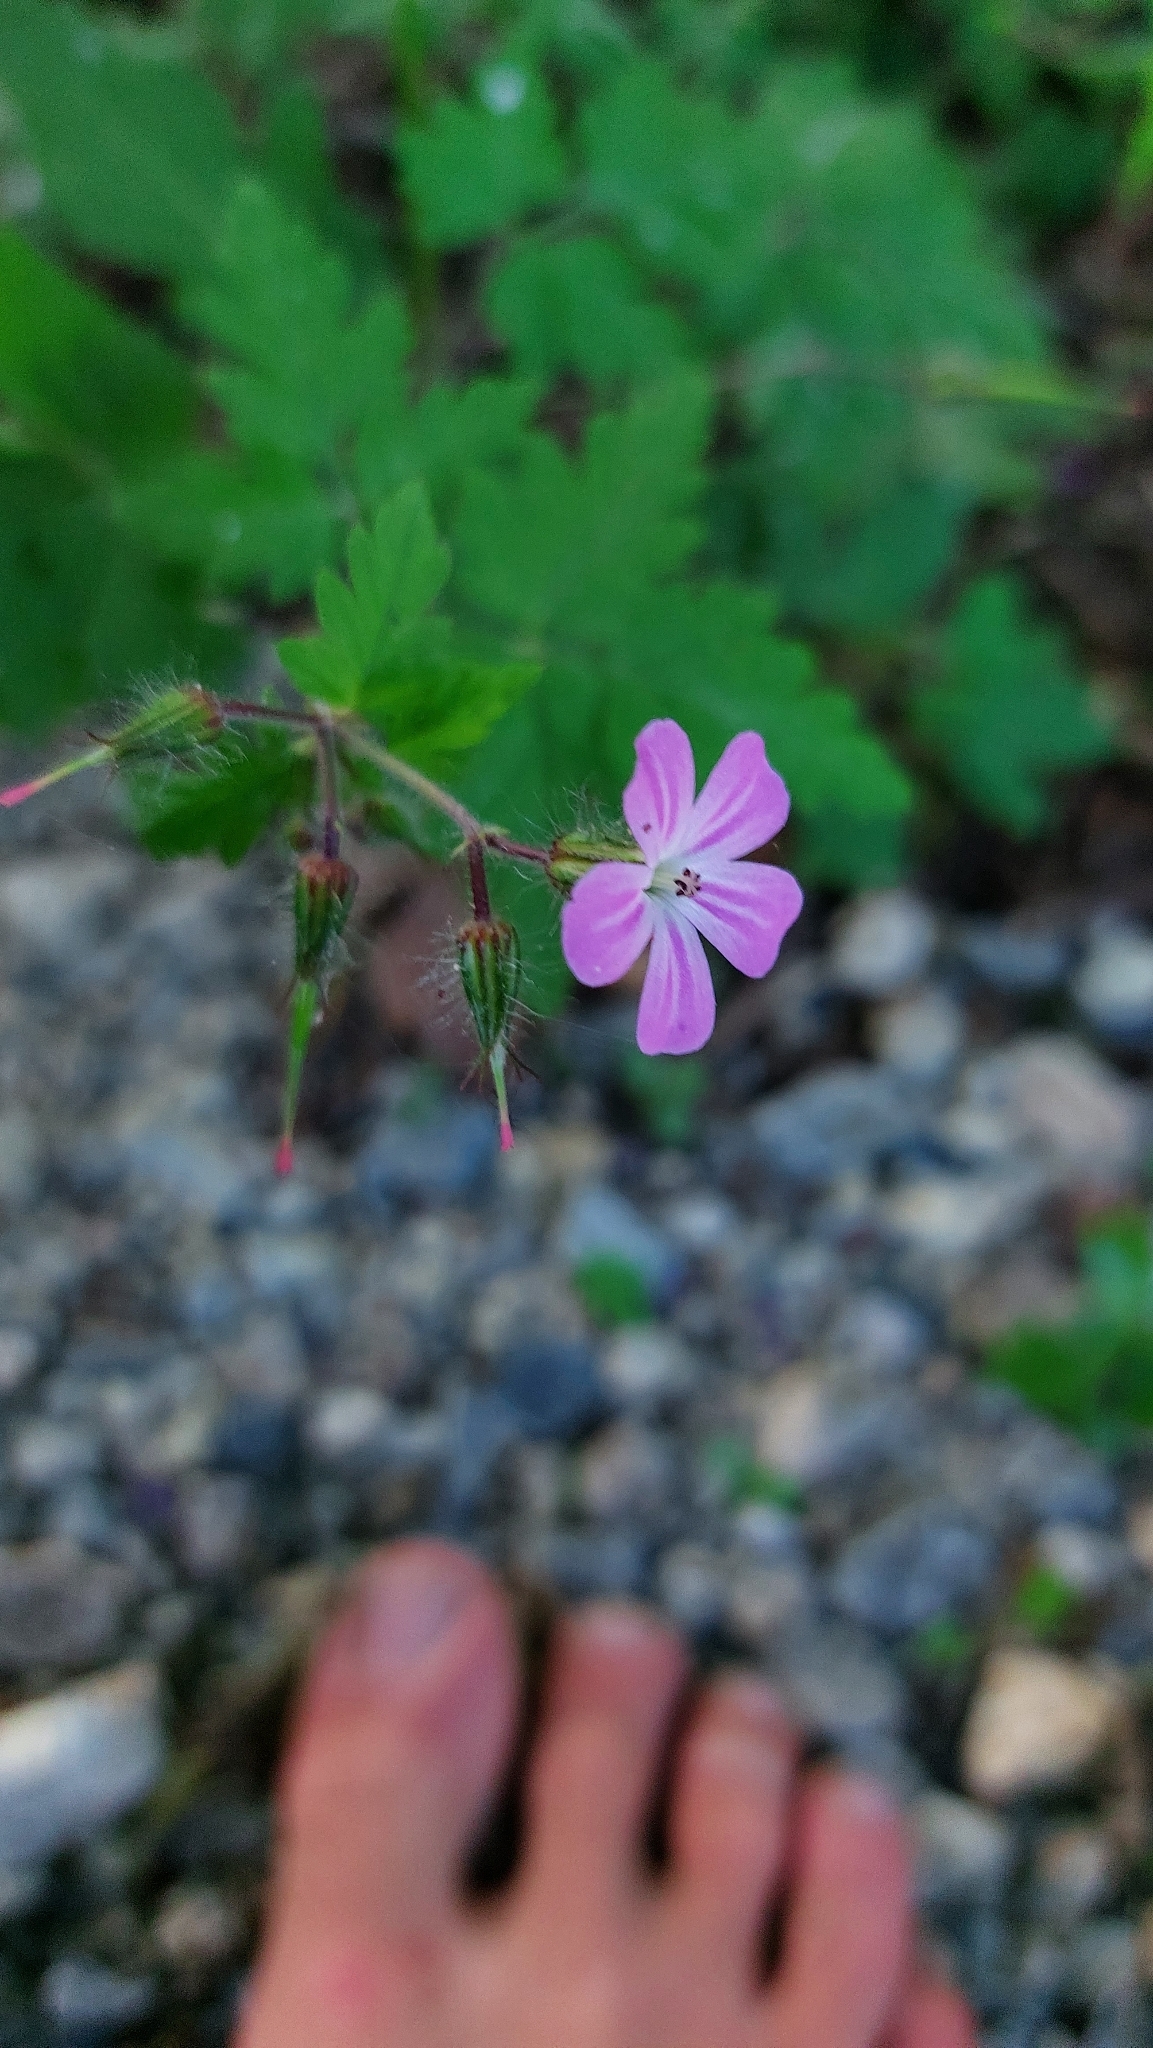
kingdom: Plantae
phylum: Tracheophyta
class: Magnoliopsida
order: Geraniales
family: Geraniaceae
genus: Geranium
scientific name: Geranium robertianum
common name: Herb-robert
